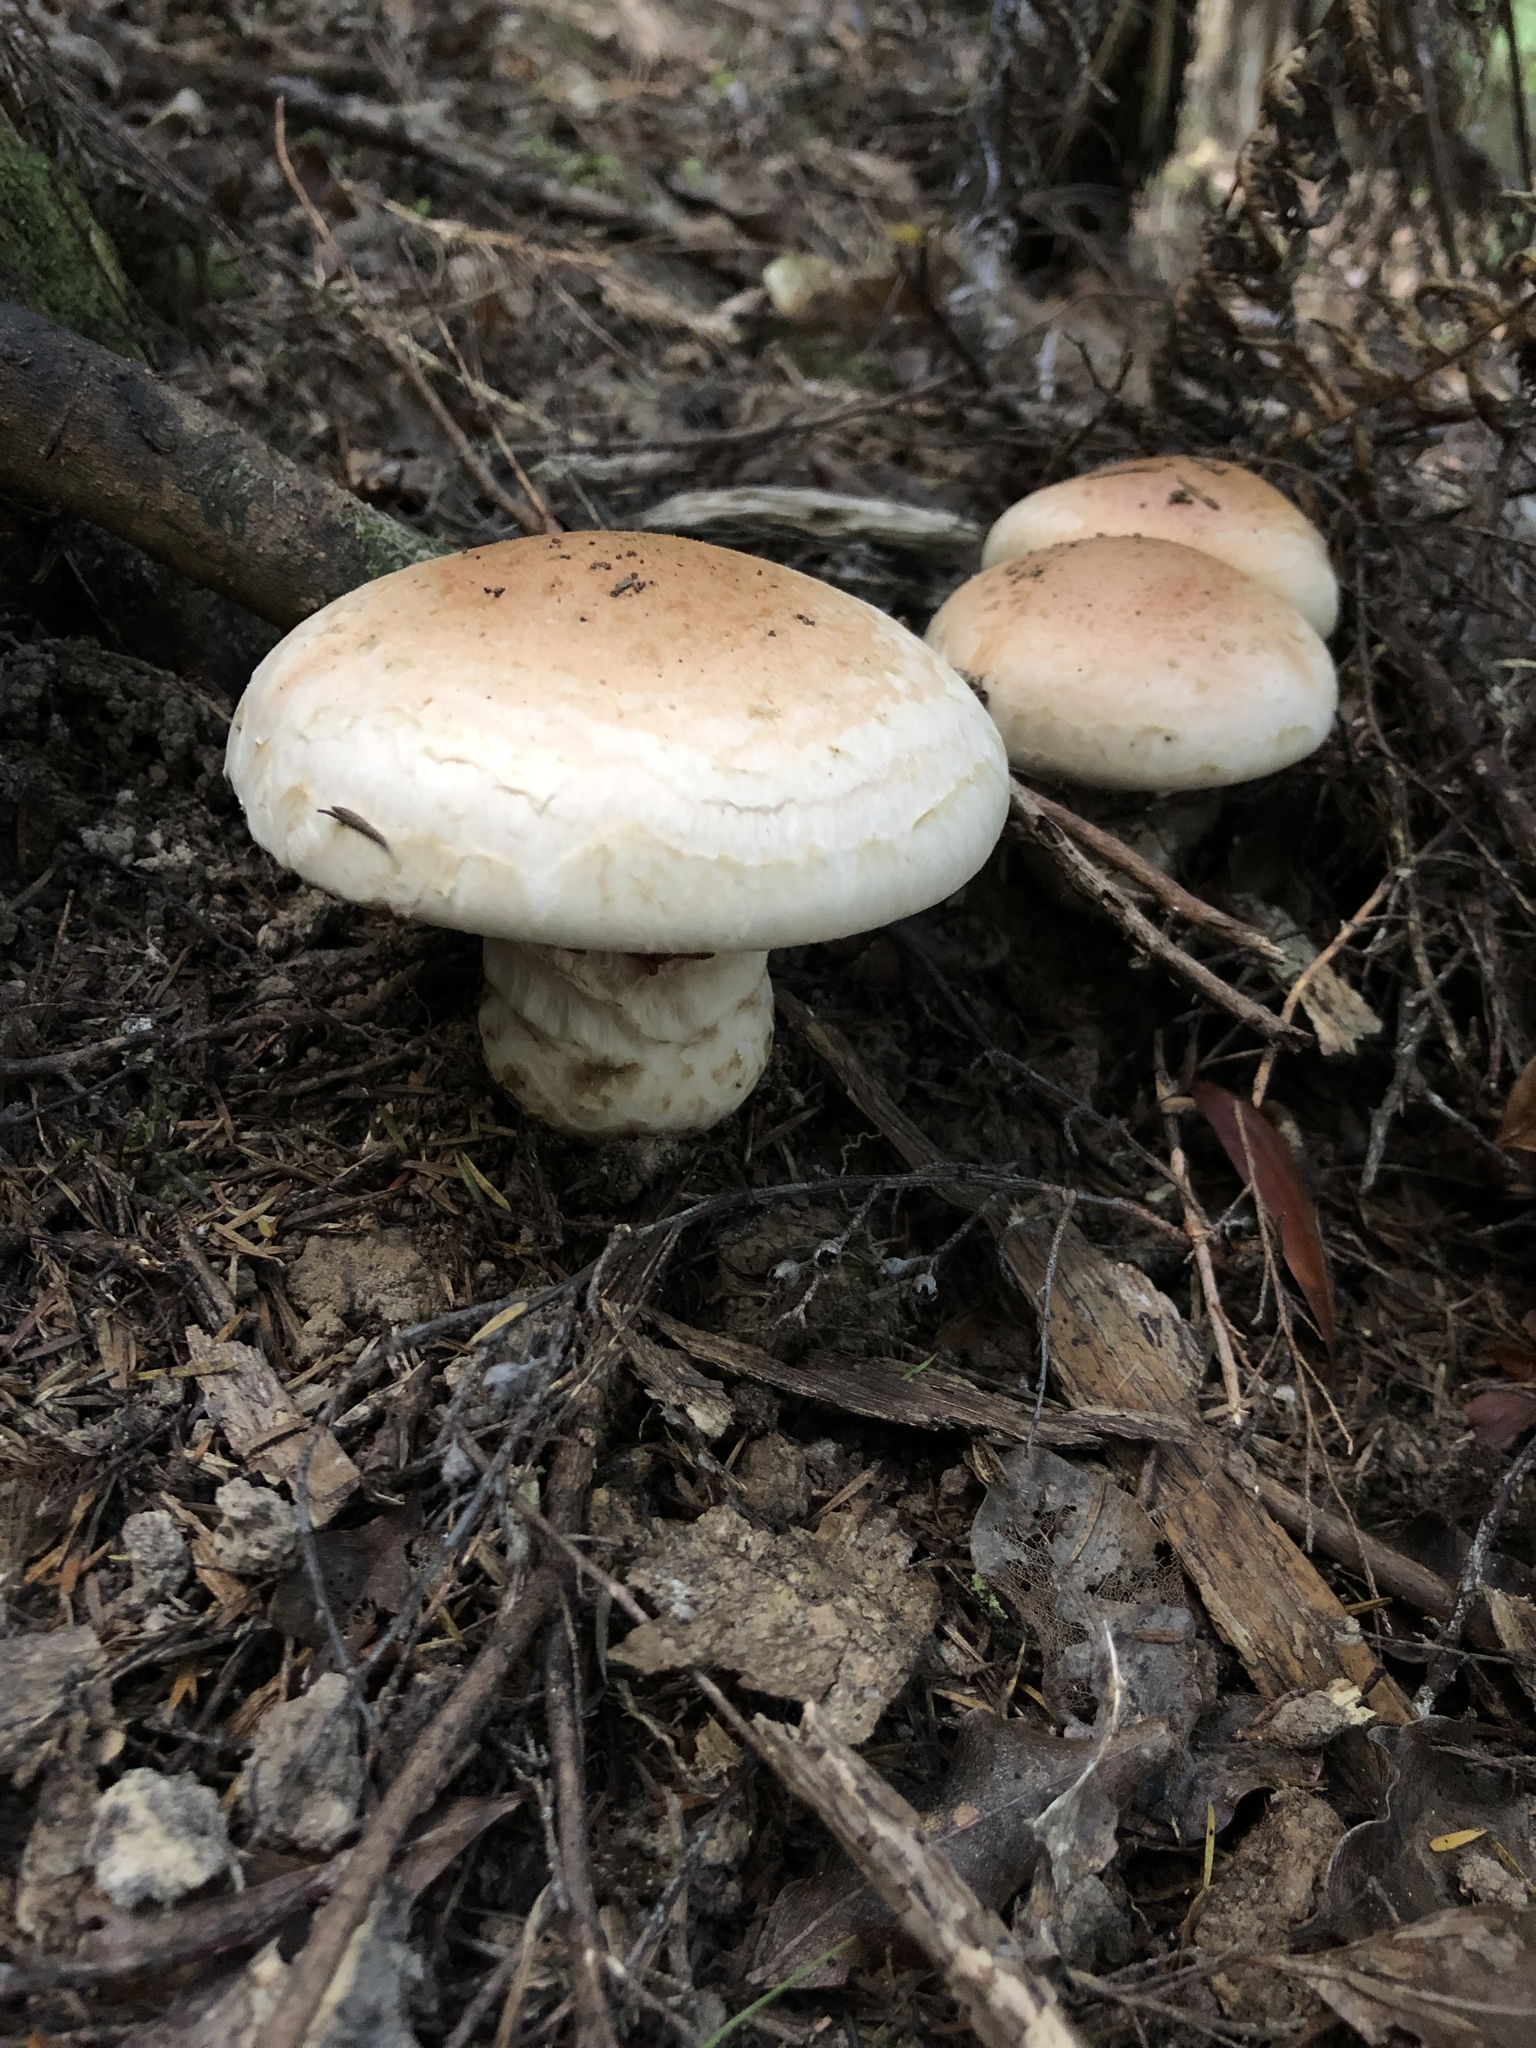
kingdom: Fungi
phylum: Basidiomycota
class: Agaricomycetes
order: Agaricales
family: Hymenogastraceae
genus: Hebeloma
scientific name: Hebeloma victoriense
